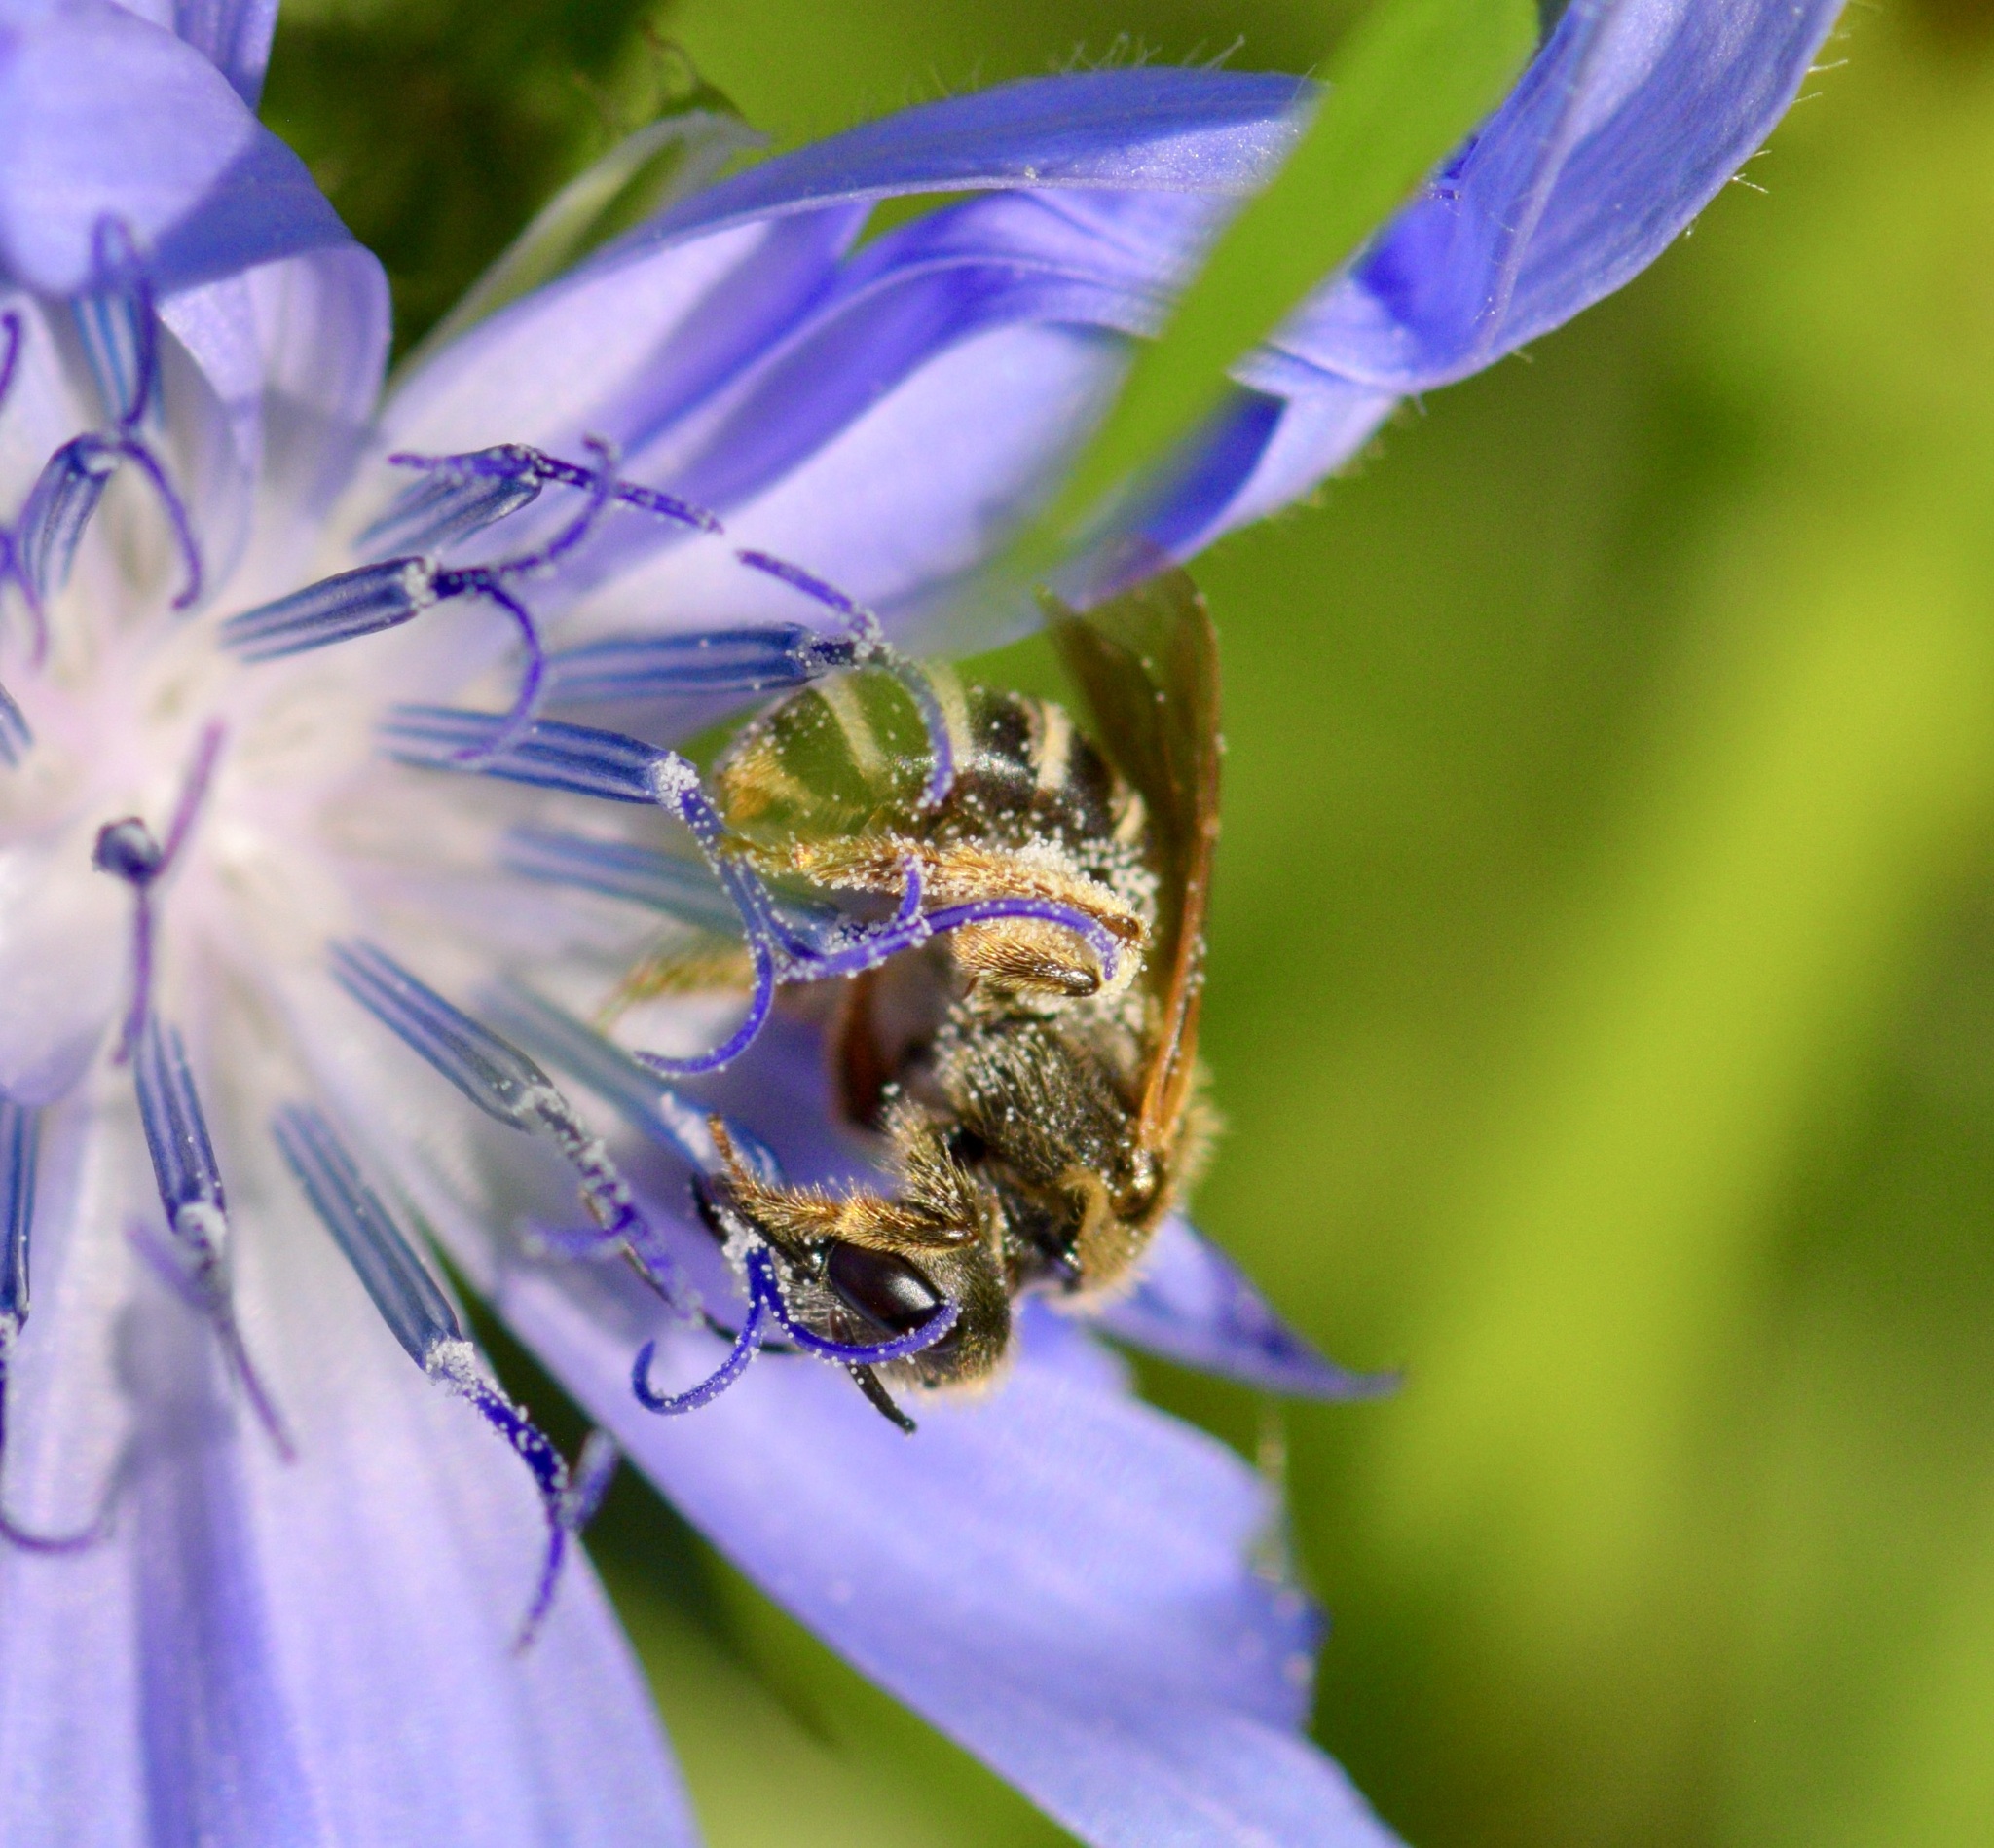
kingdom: Animalia
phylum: Arthropoda
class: Insecta
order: Hymenoptera
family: Halictidae
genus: Halictus
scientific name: Halictus ligatus
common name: Ligated furrow bee
